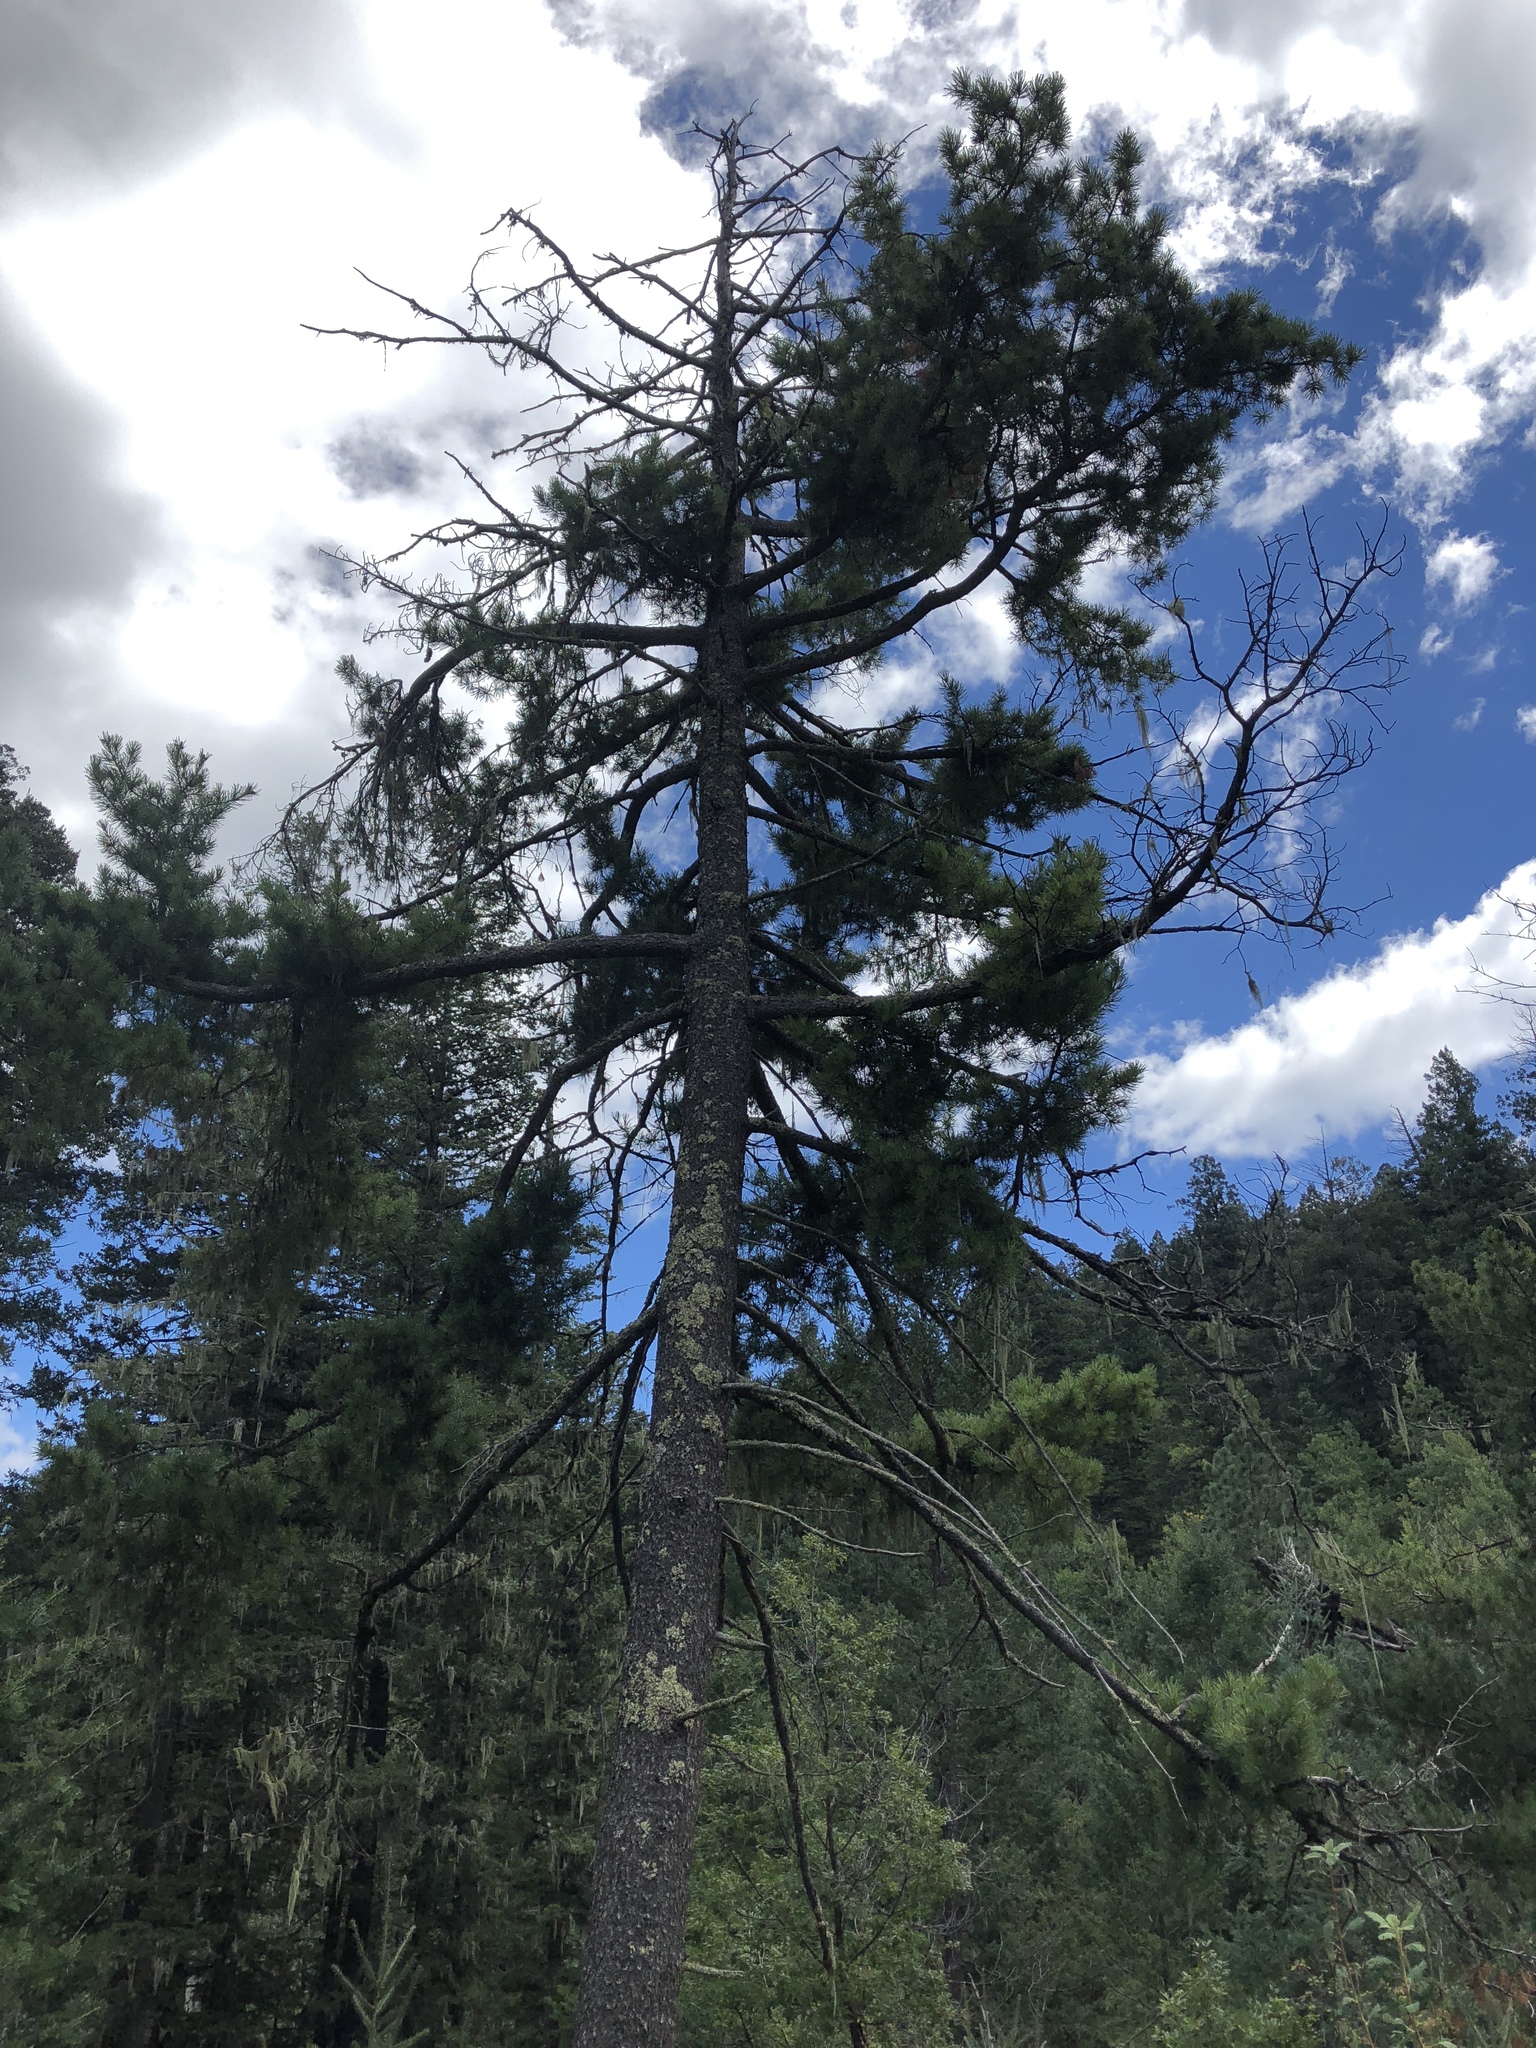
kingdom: Plantae
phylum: Tracheophyta
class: Pinopsida
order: Pinales
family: Pinaceae
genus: Pinus
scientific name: Pinus strobiformis
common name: Southwestern white pine
